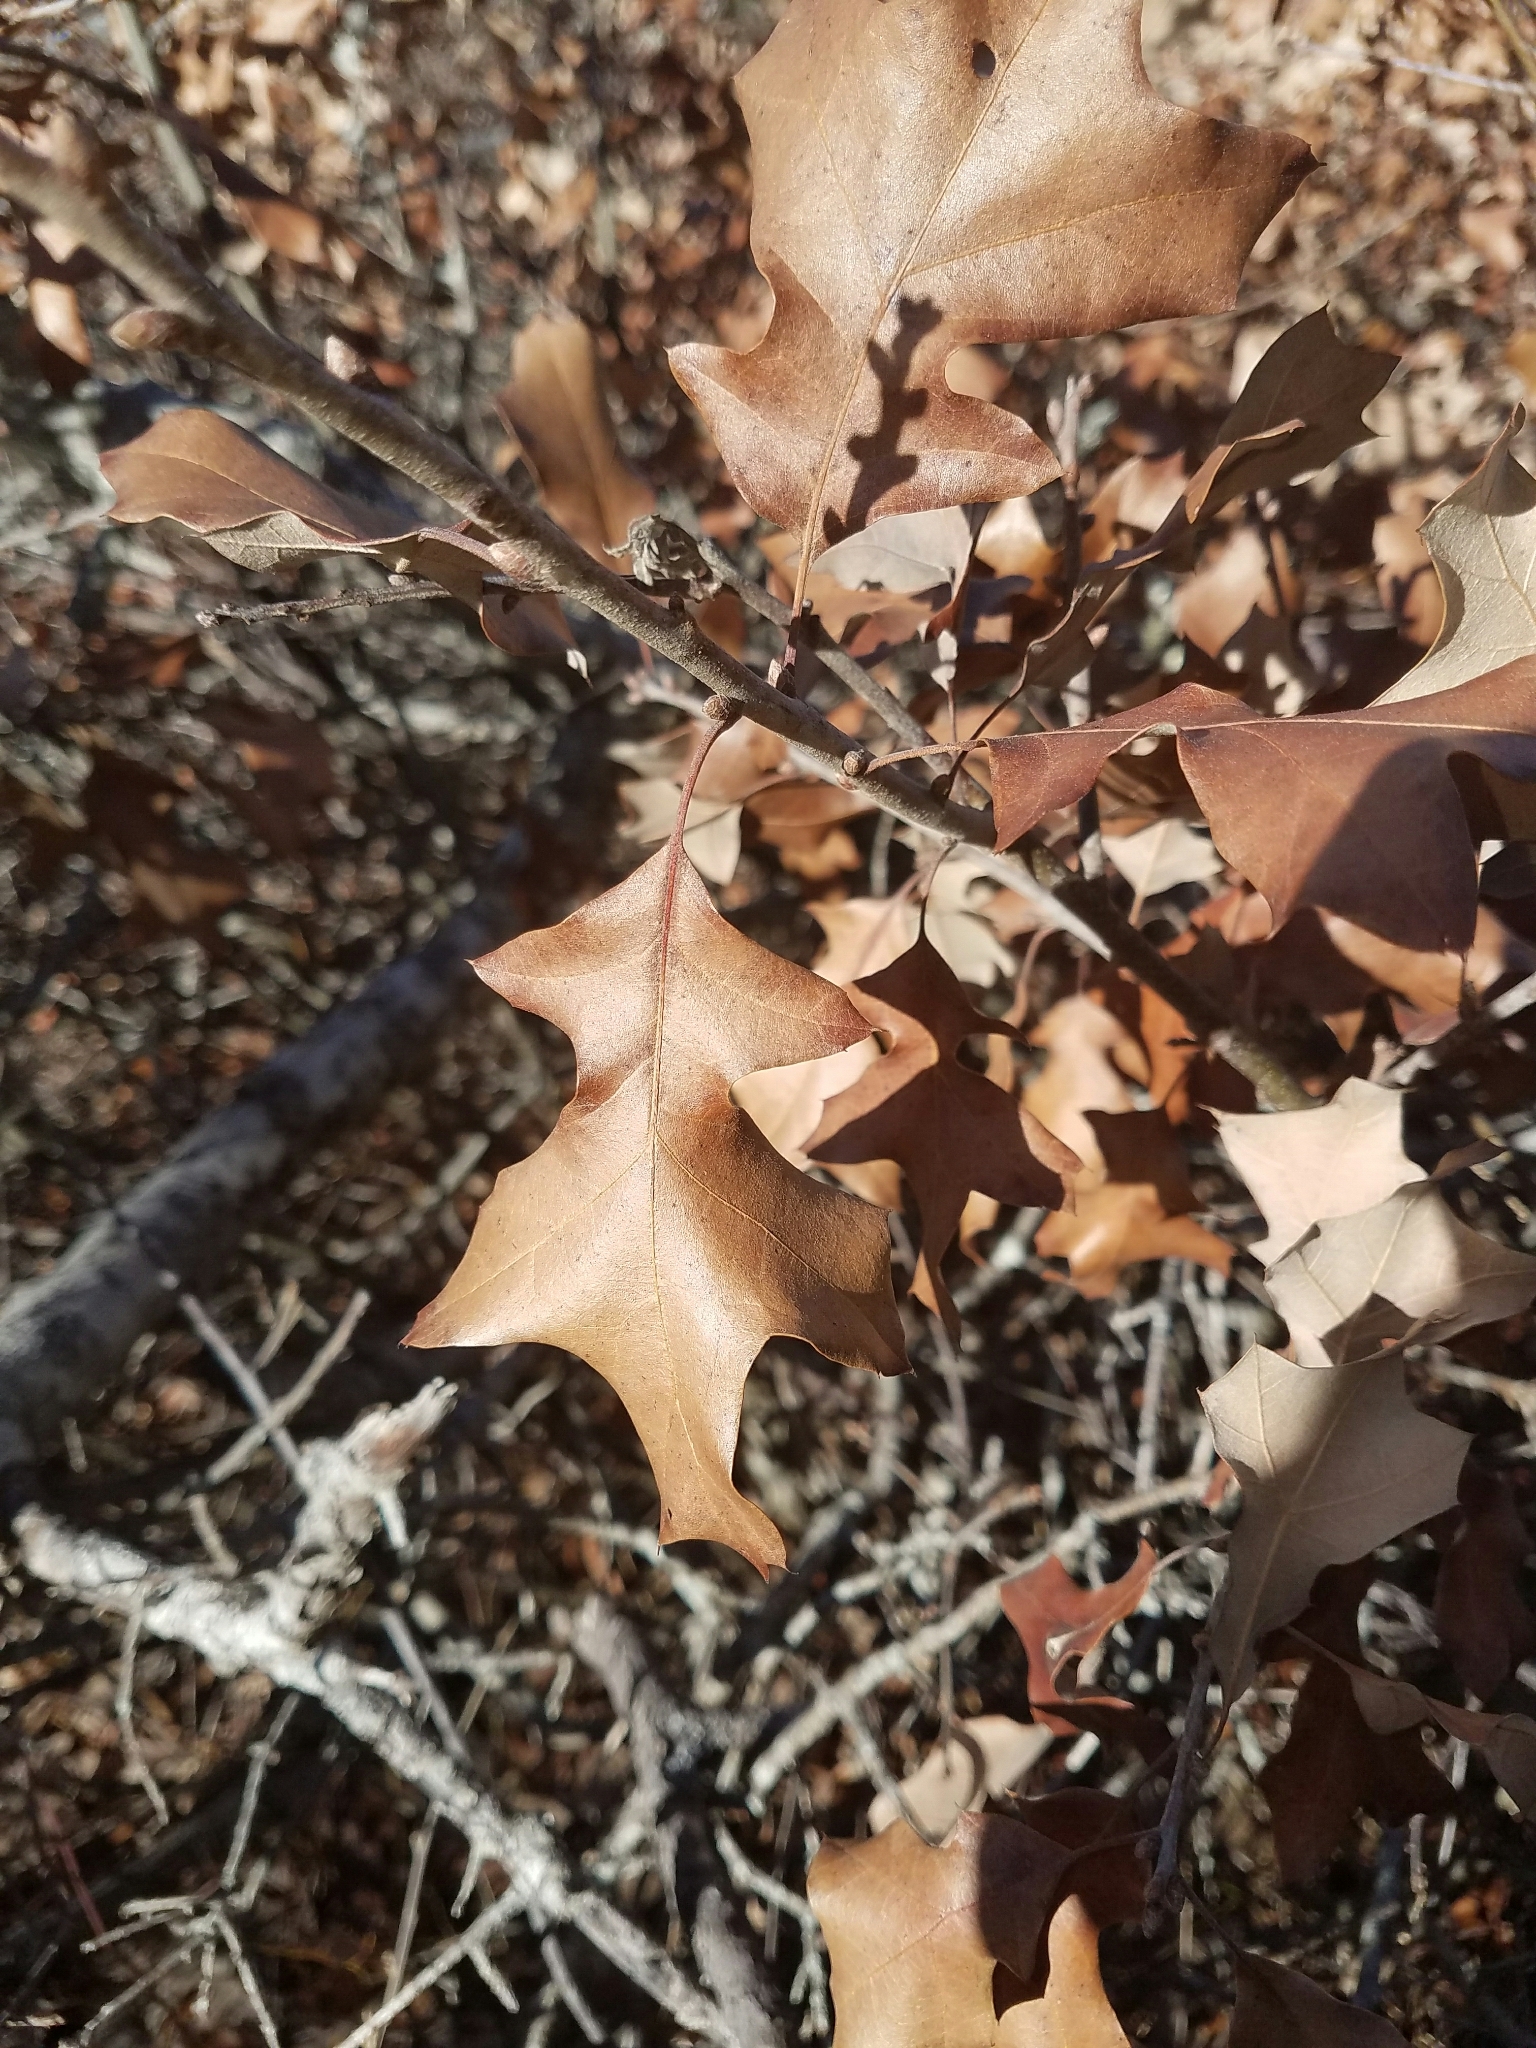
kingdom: Plantae
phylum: Tracheophyta
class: Magnoliopsida
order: Fagales
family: Fagaceae
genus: Quercus
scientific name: Quercus ilicifolia
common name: Bear oak
